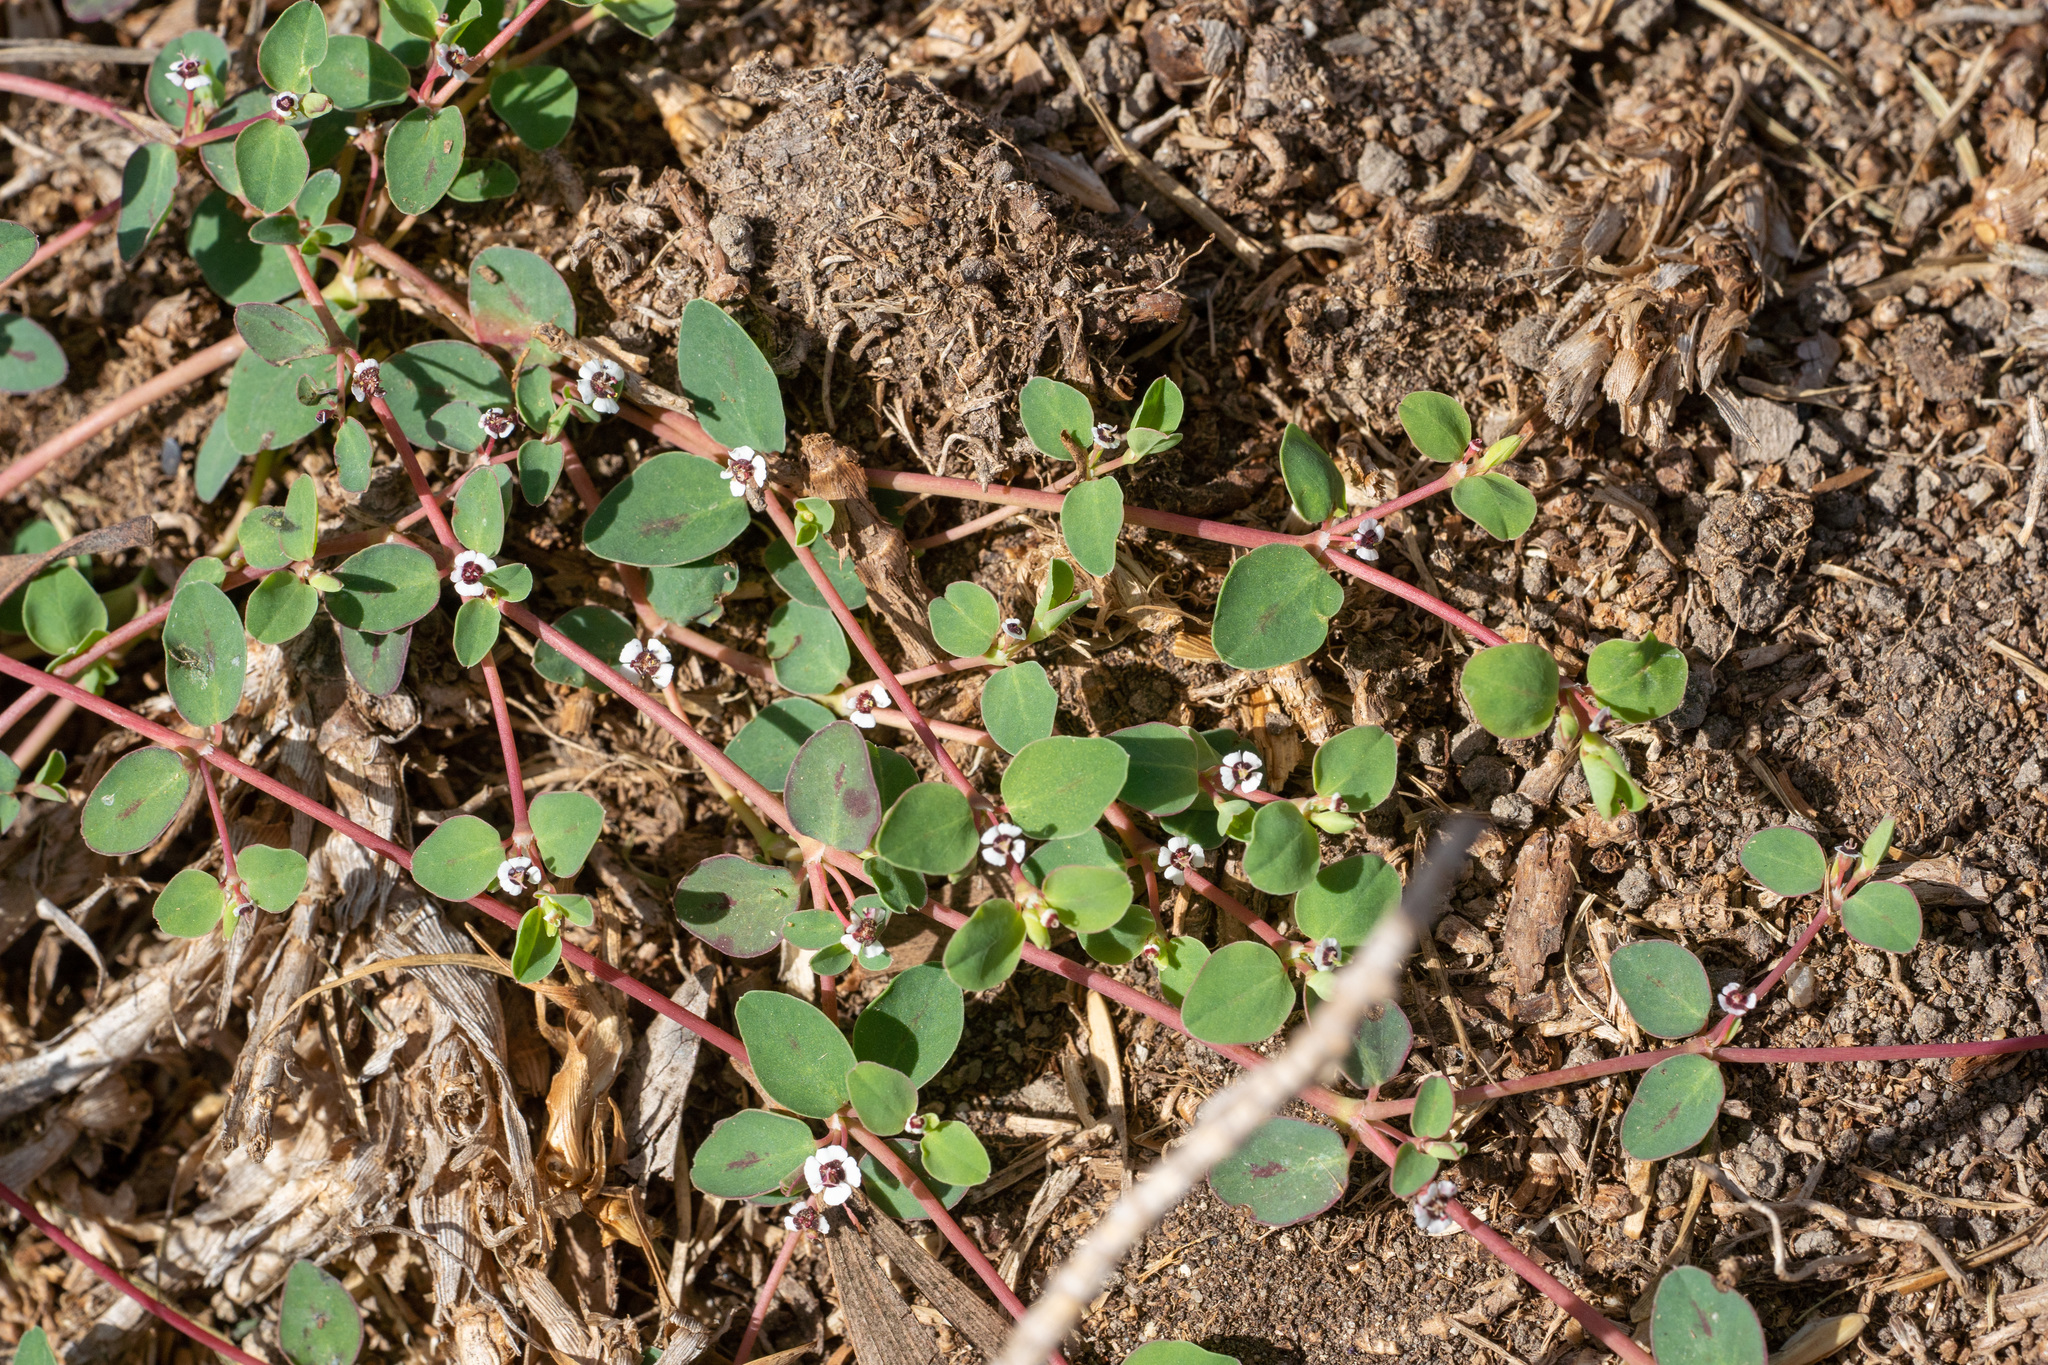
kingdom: Plantae
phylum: Tracheophyta
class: Magnoliopsida
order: Malpighiales
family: Euphorbiaceae
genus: Euphorbia
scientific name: Euphorbia albomarginata
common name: Whitemargin sandmat
